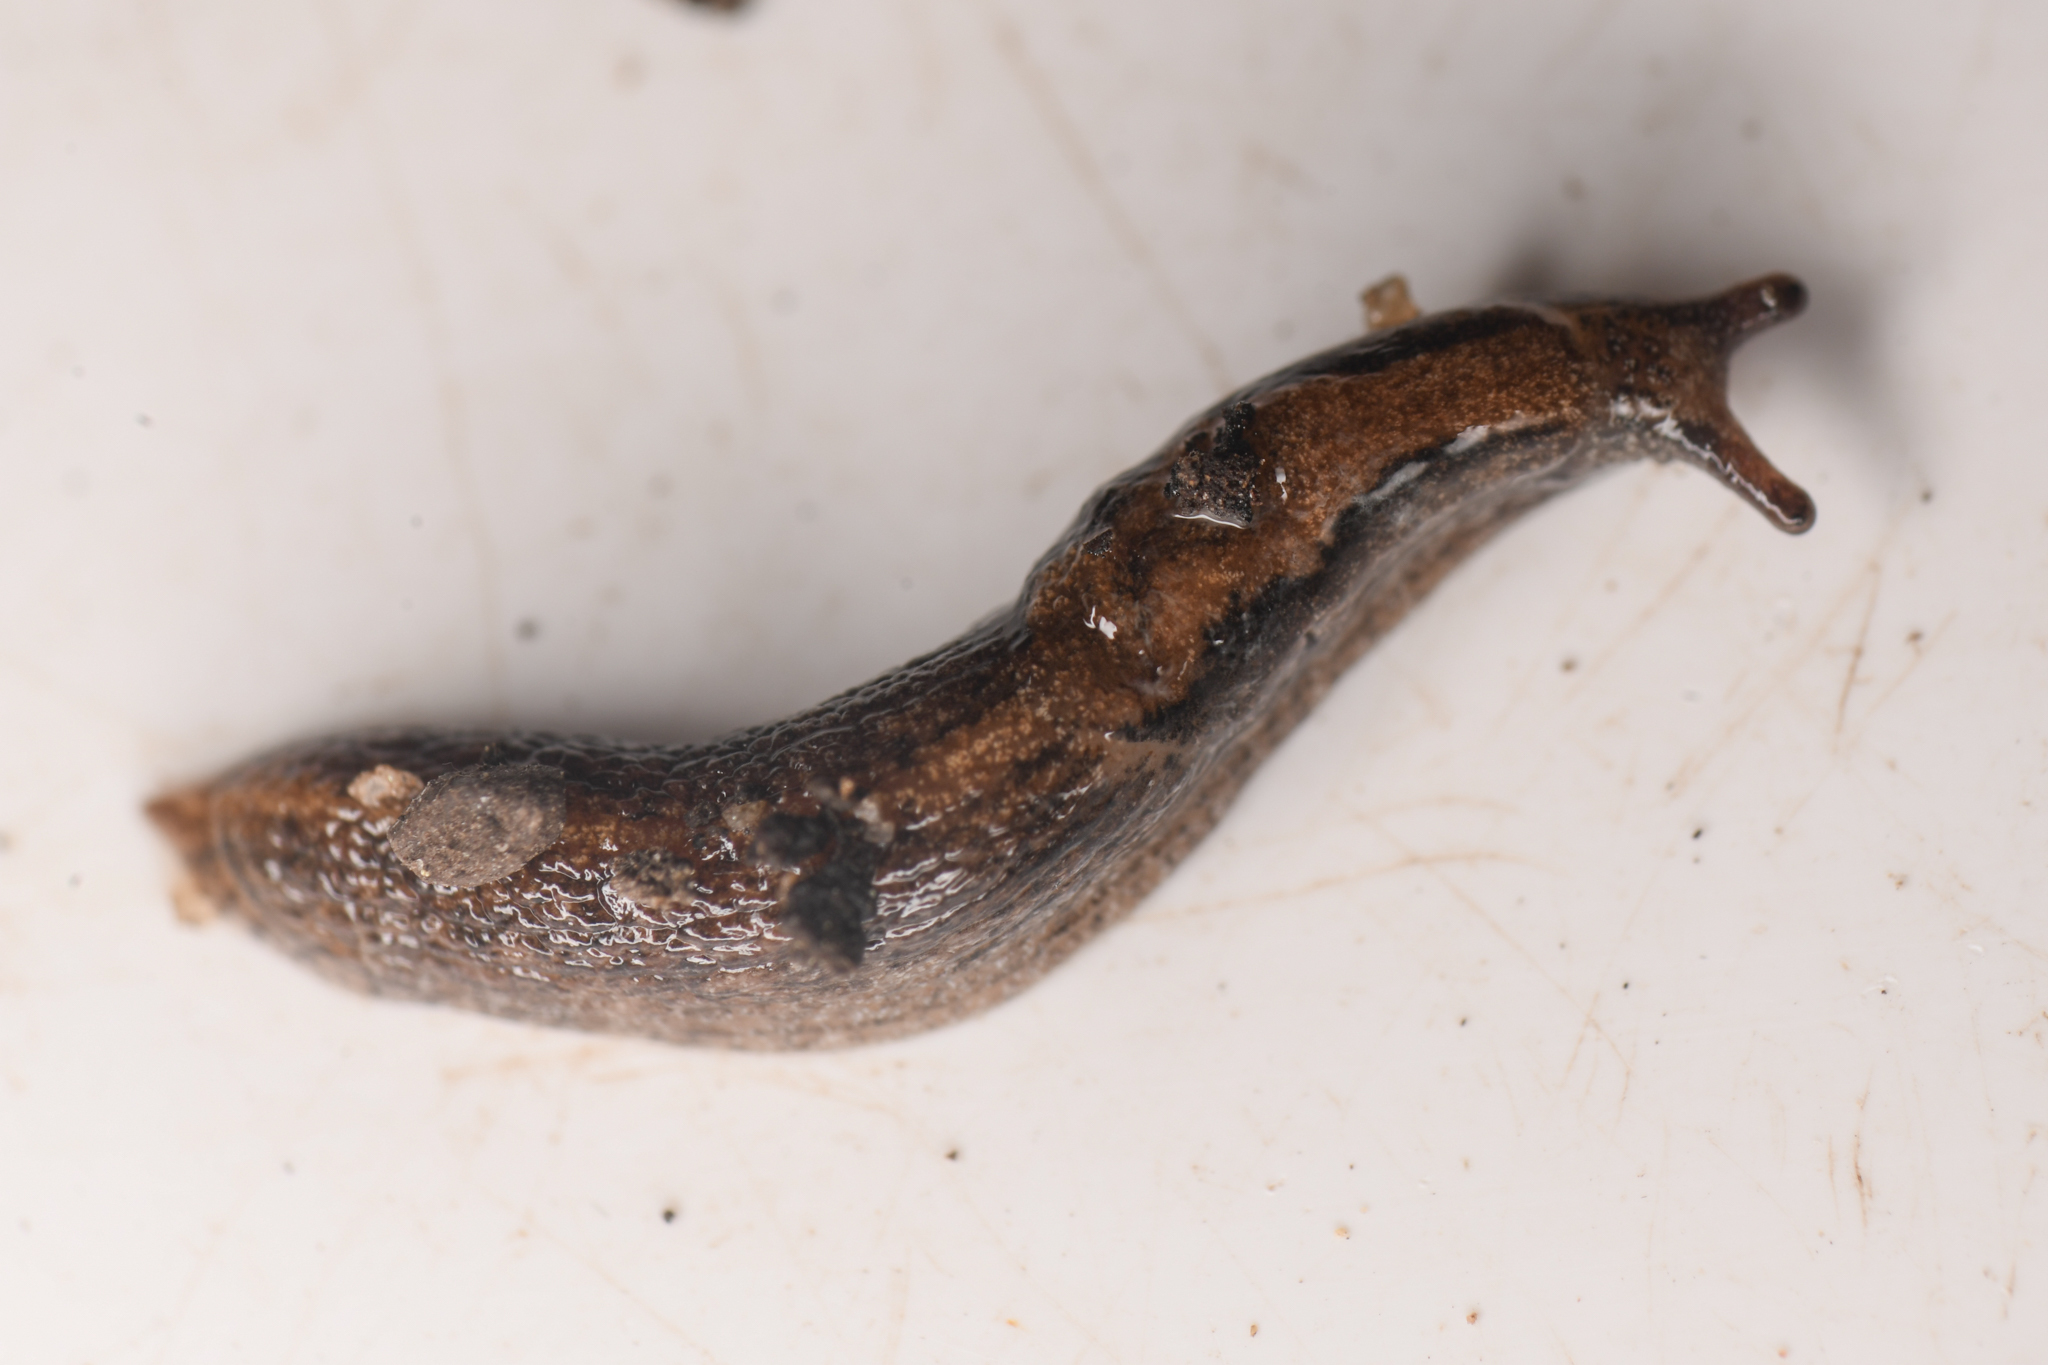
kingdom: Animalia
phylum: Mollusca
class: Gastropoda
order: Stylommatophora
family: Ariolimacidae
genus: Anadenulus
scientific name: Anadenulus cockerelli
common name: American keeled slug
